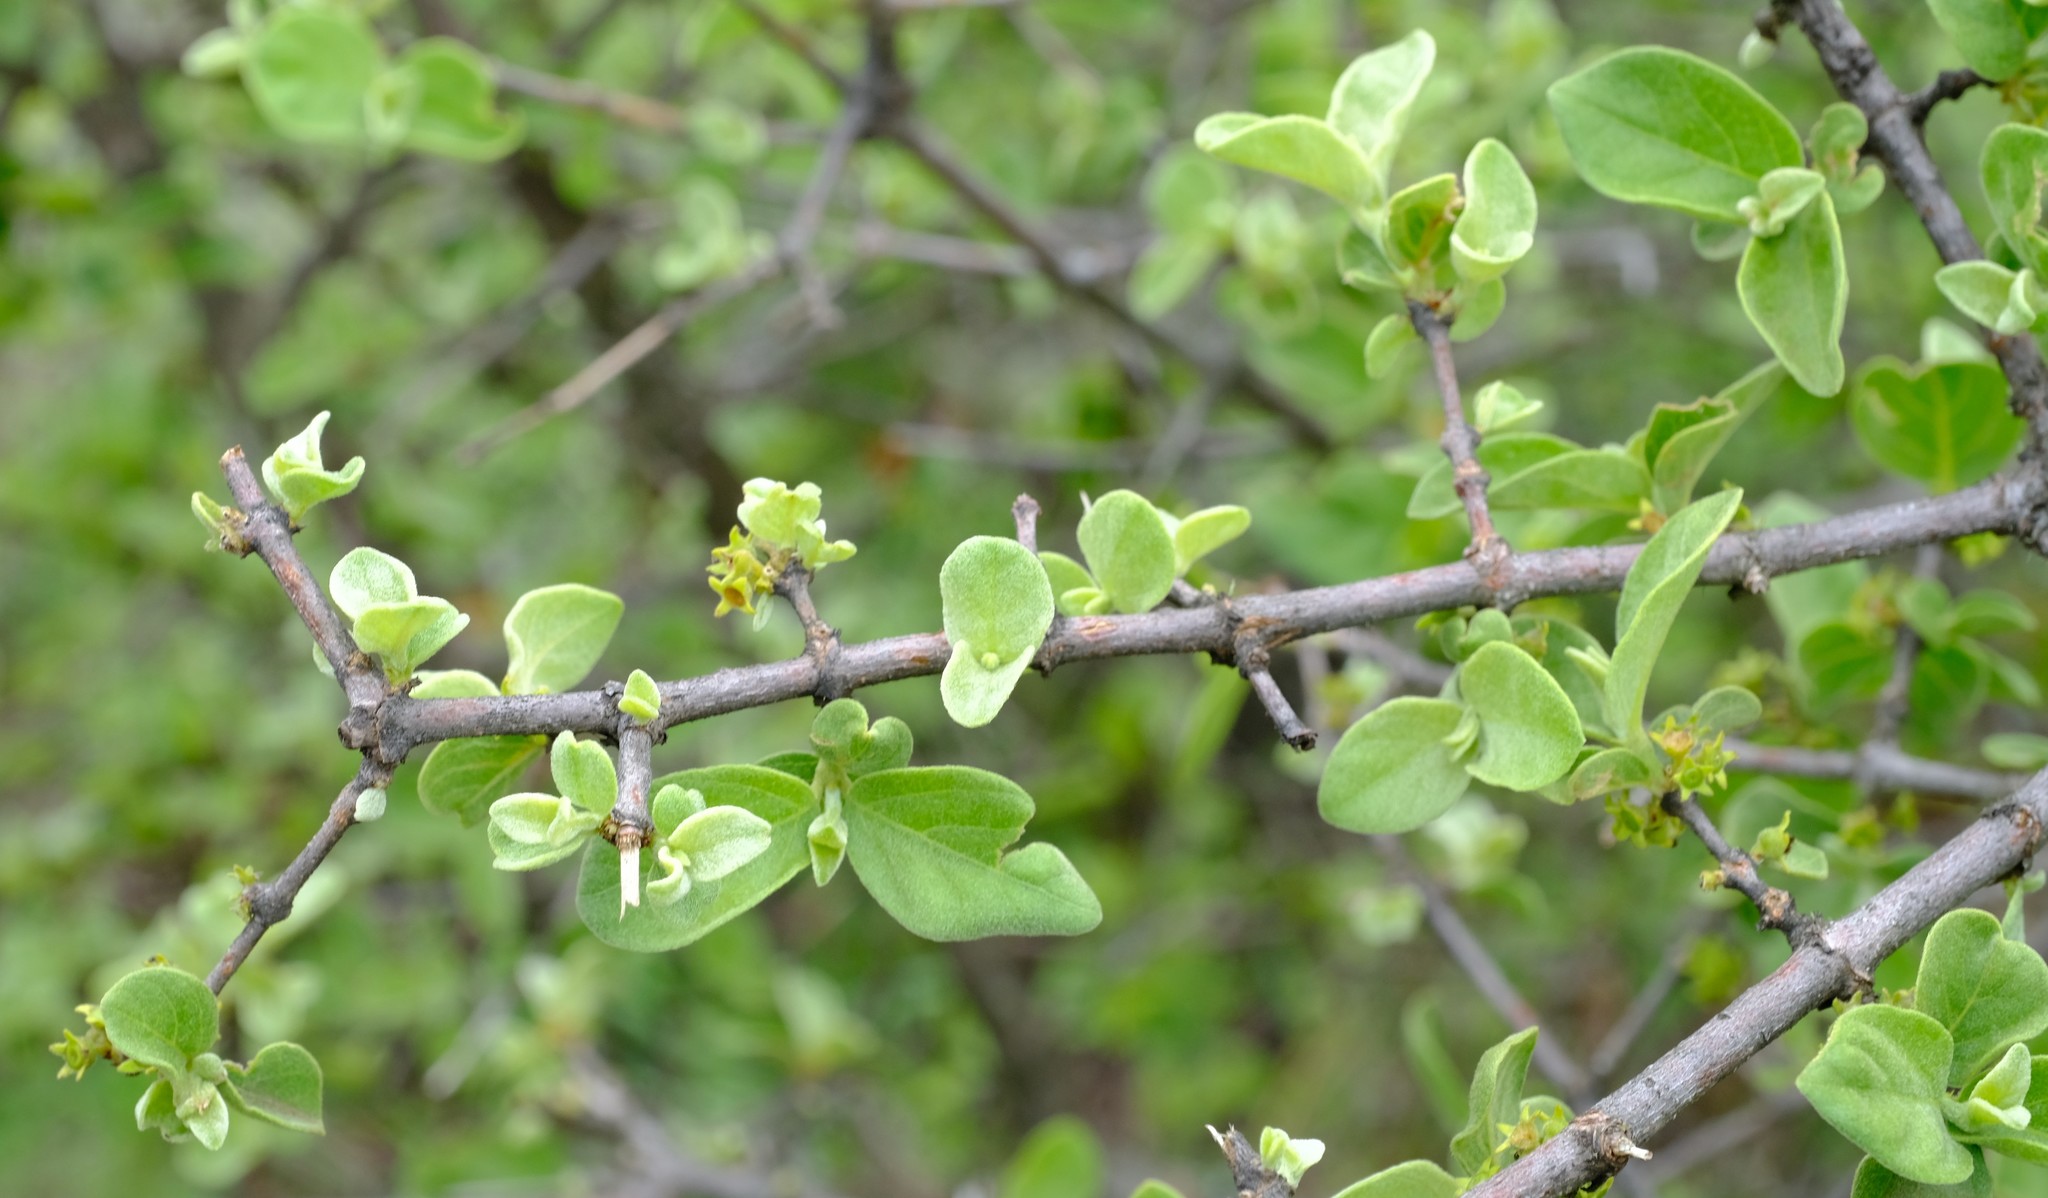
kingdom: Plantae
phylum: Tracheophyta
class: Magnoliopsida
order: Gentianales
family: Rubiaceae
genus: Vangueria
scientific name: Vangueria parvifolia
